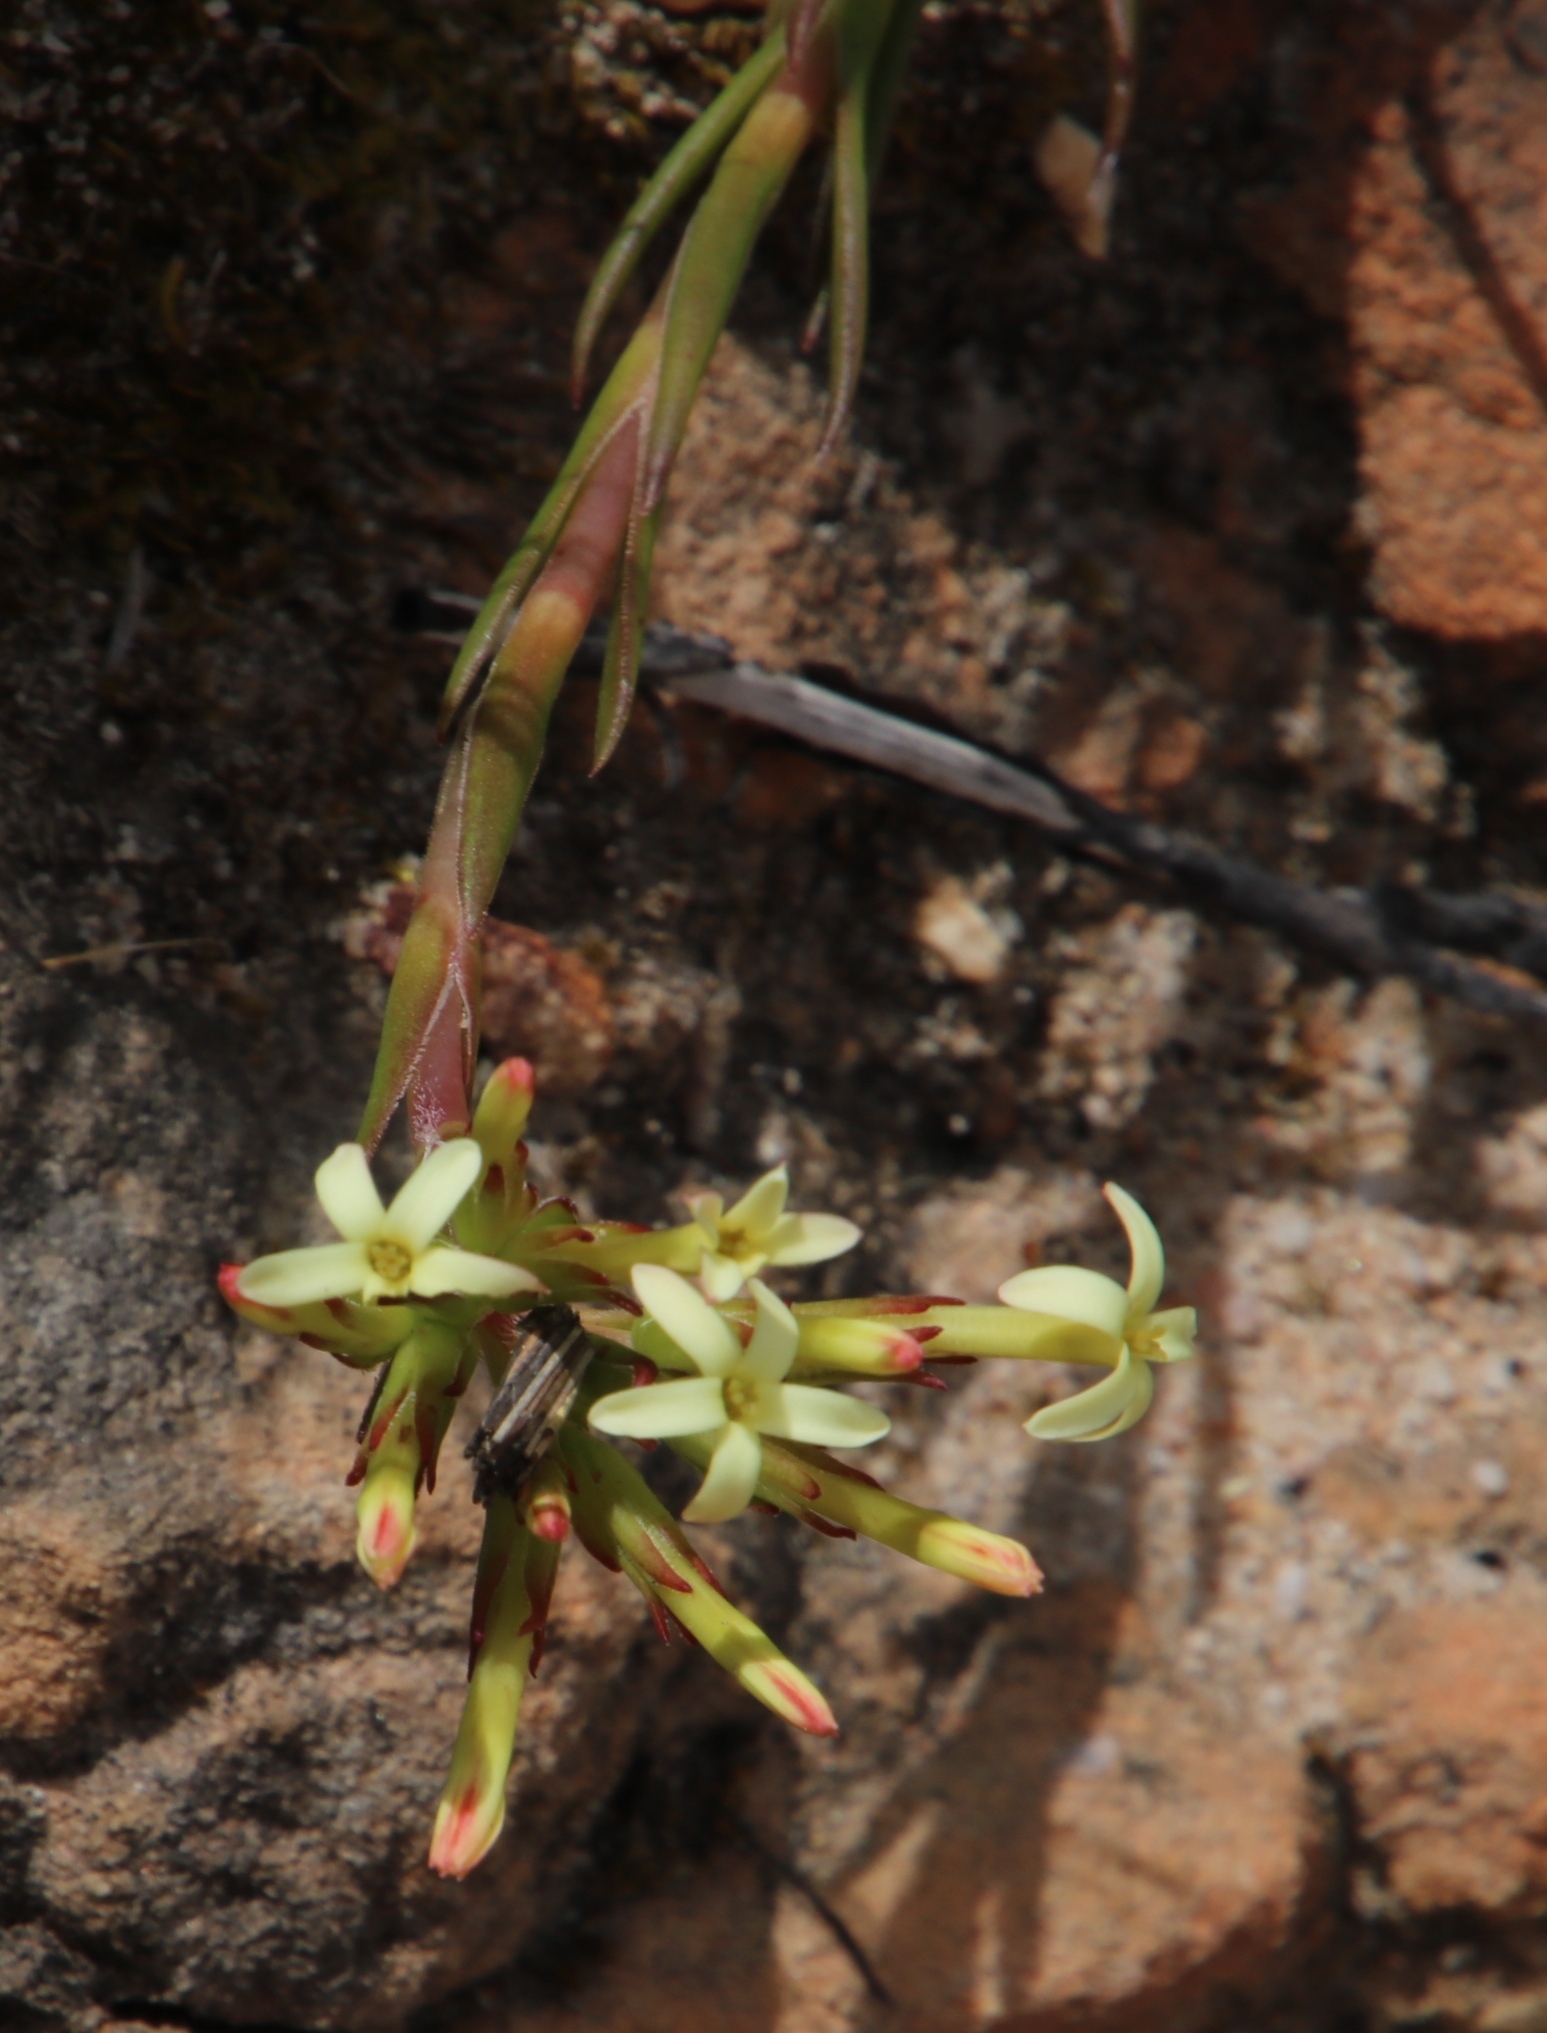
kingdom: Plantae
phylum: Tracheophyta
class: Magnoliopsida
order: Saxifragales
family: Crassulaceae
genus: Crassula
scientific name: Crassula fascicularis
